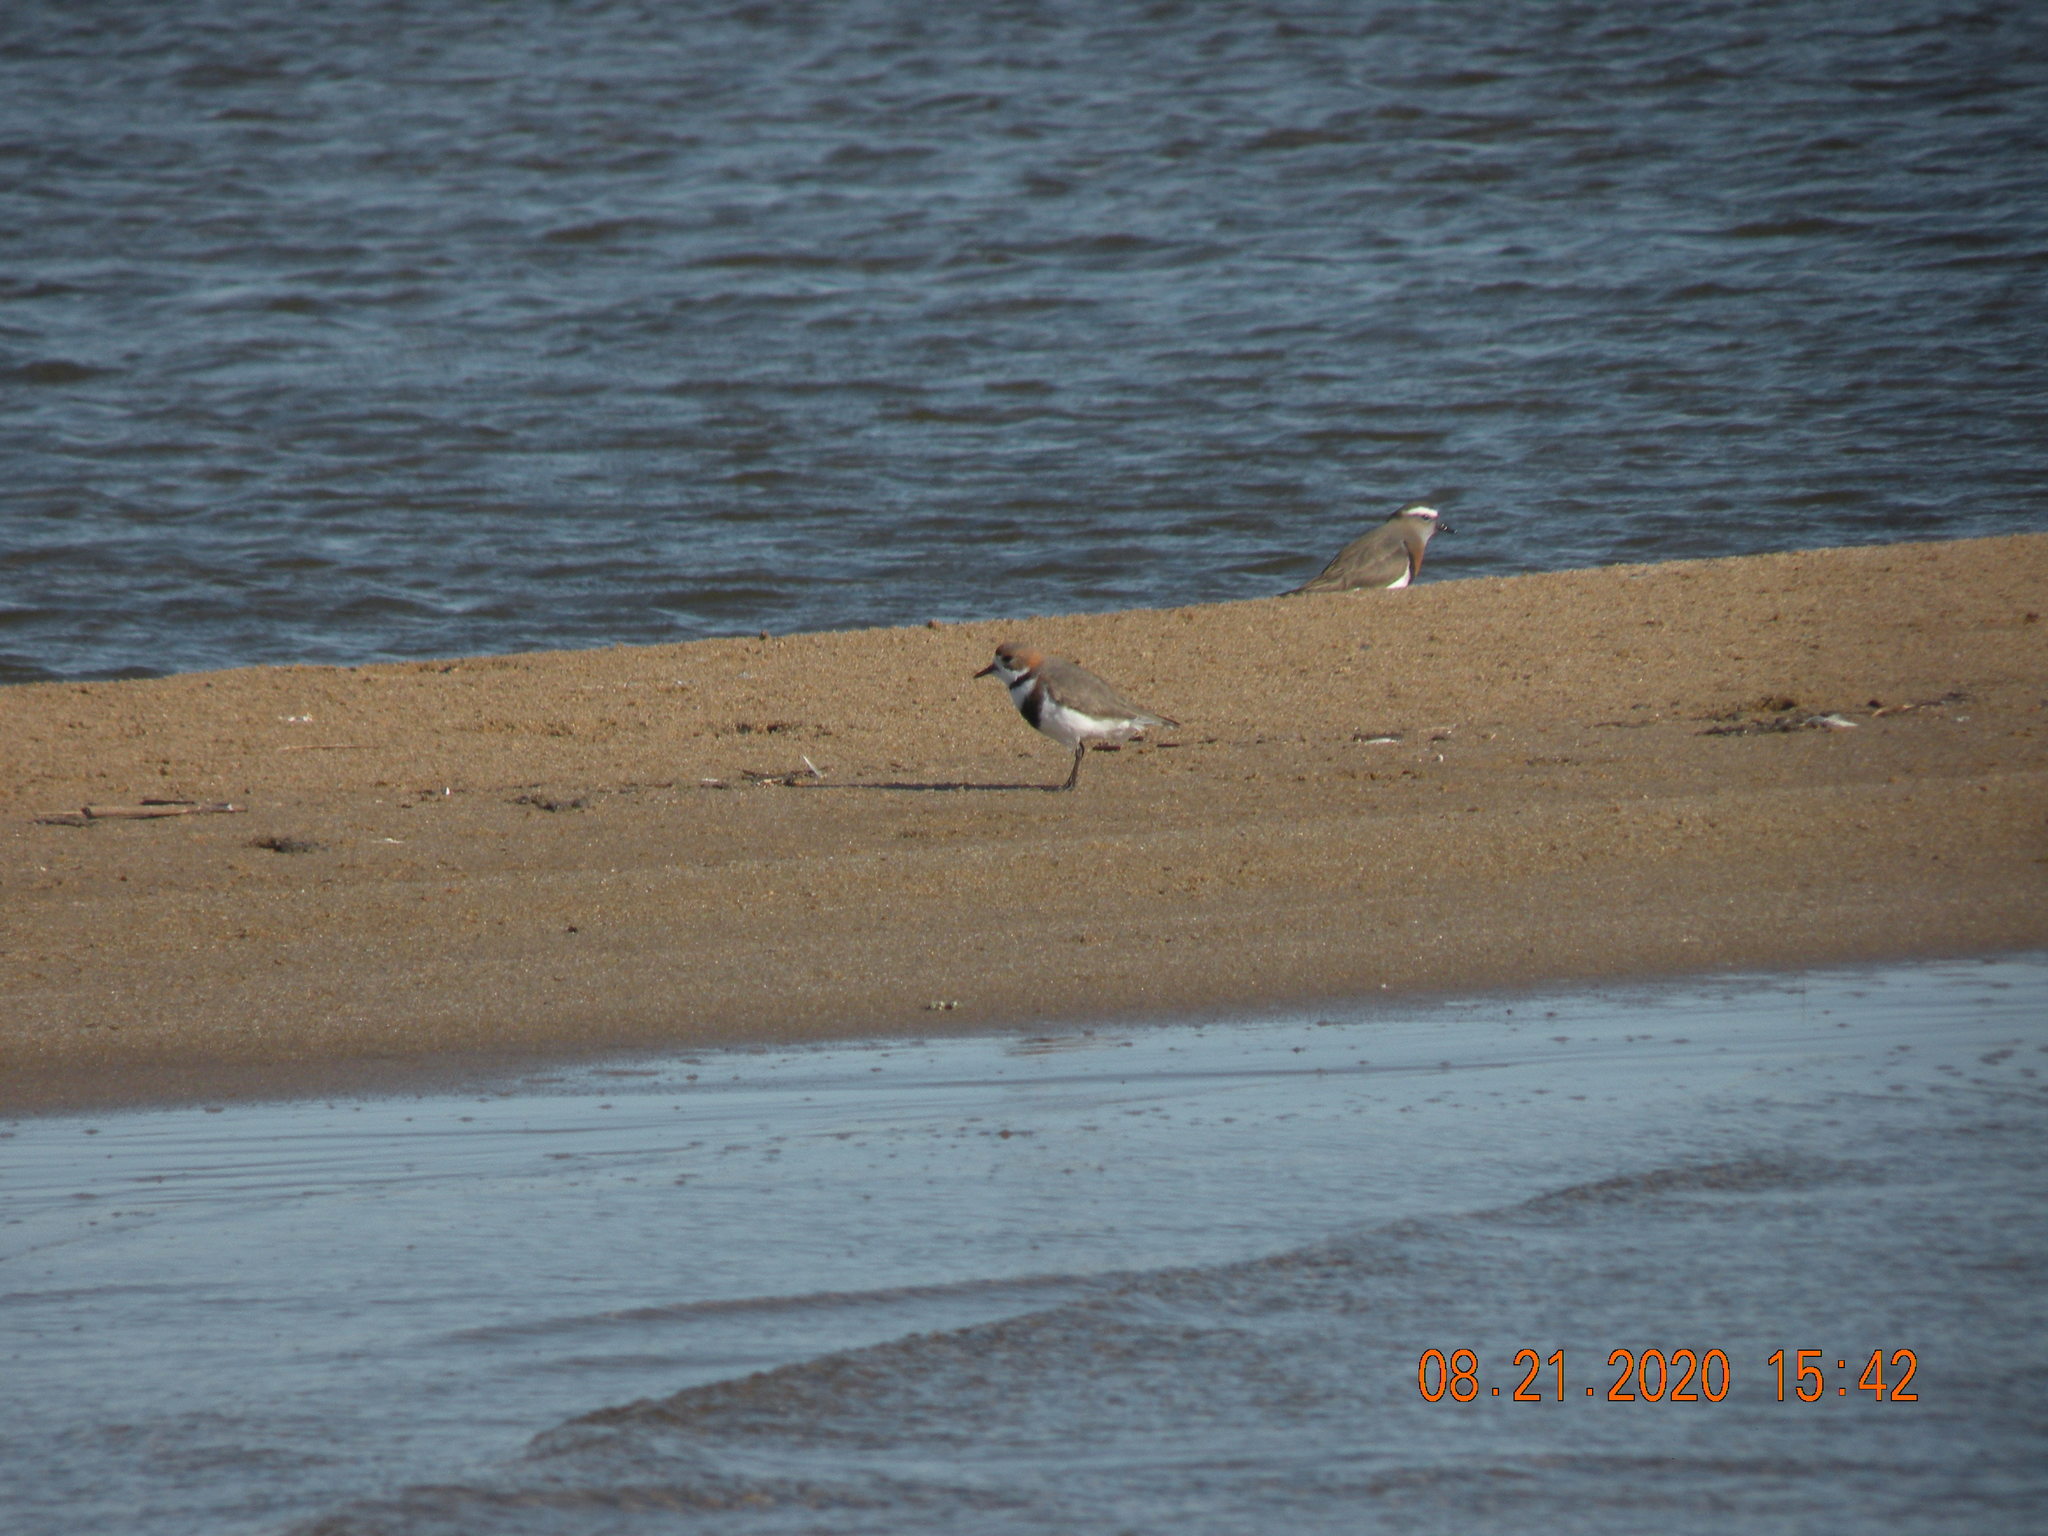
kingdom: Animalia
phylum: Chordata
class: Aves
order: Charadriiformes
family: Charadriidae
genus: Anarhynchus
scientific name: Anarhynchus
